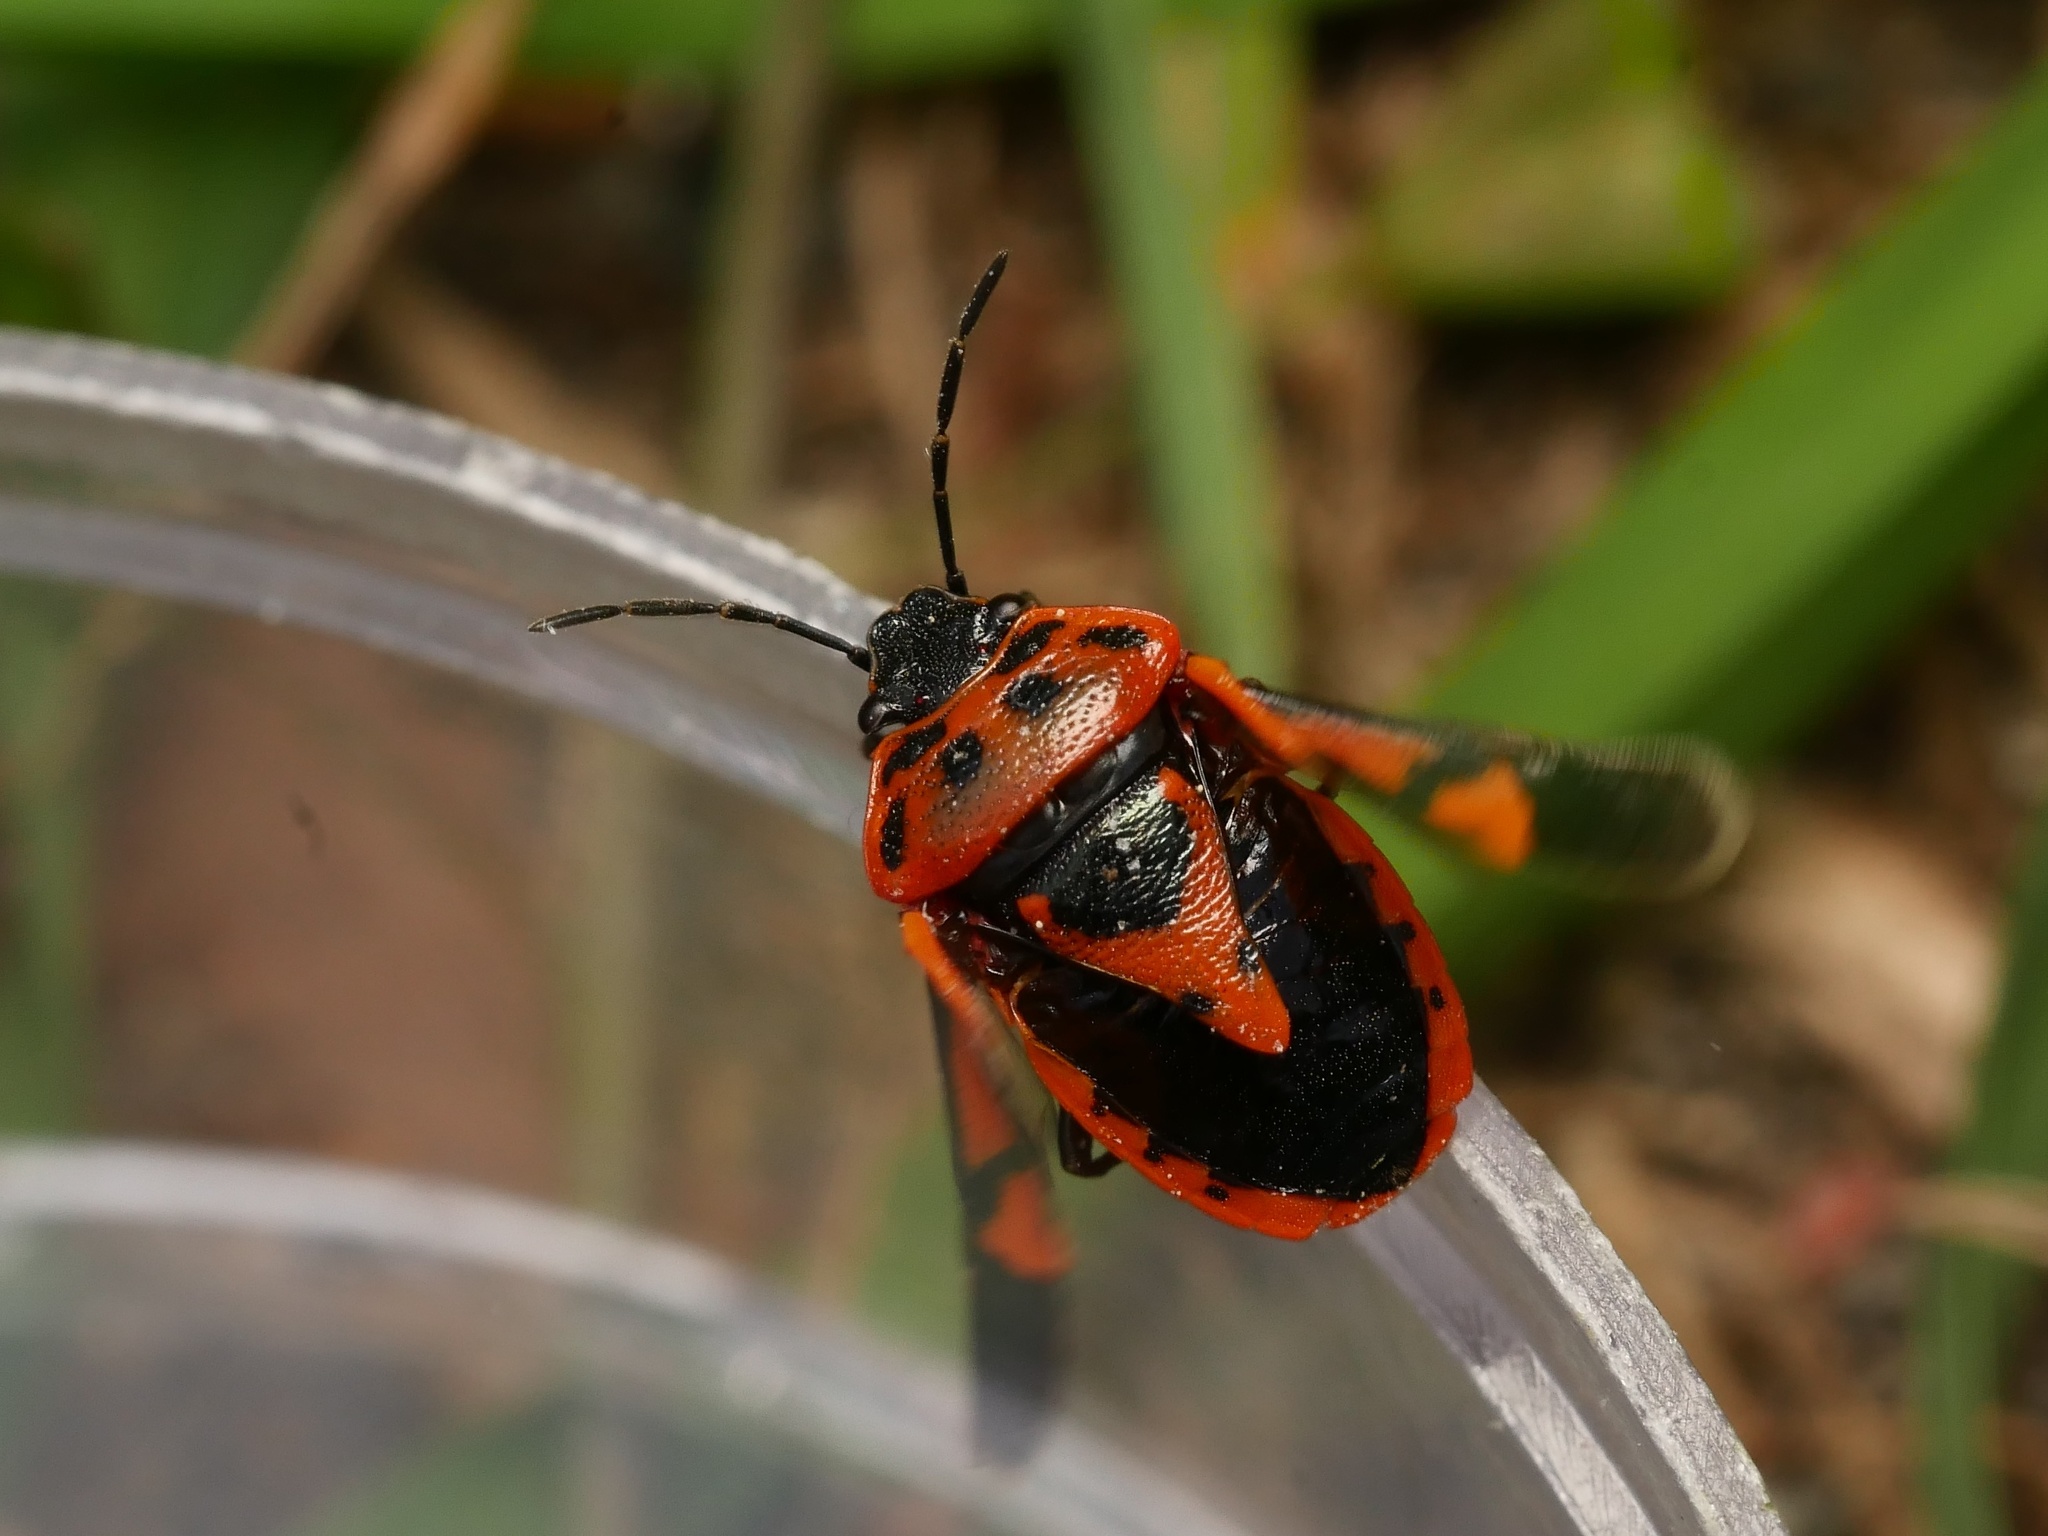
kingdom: Animalia
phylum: Arthropoda
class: Insecta
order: Hemiptera
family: Pentatomidae
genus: Eurydema
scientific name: Eurydema ornata
